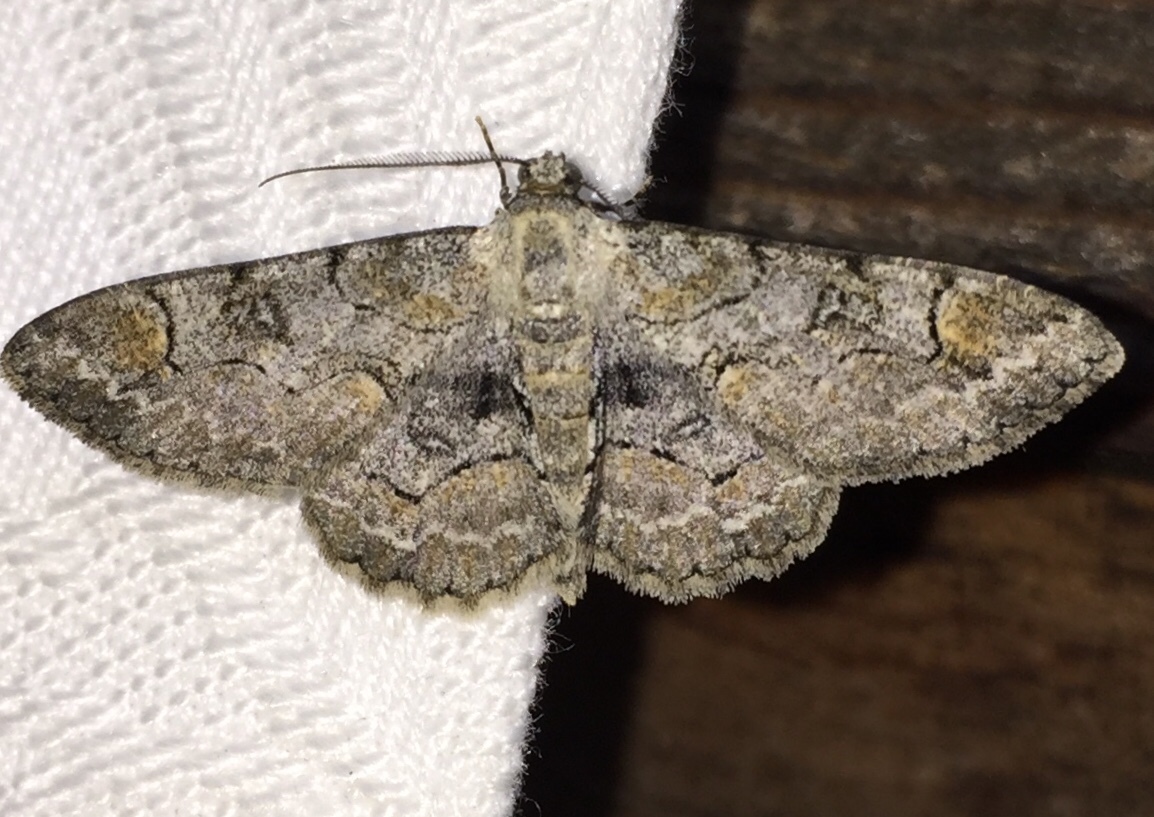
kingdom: Animalia
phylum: Arthropoda
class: Insecta
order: Lepidoptera
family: Geometridae
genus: Iridopsis
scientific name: Iridopsis larvaria
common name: Bent-line gray
